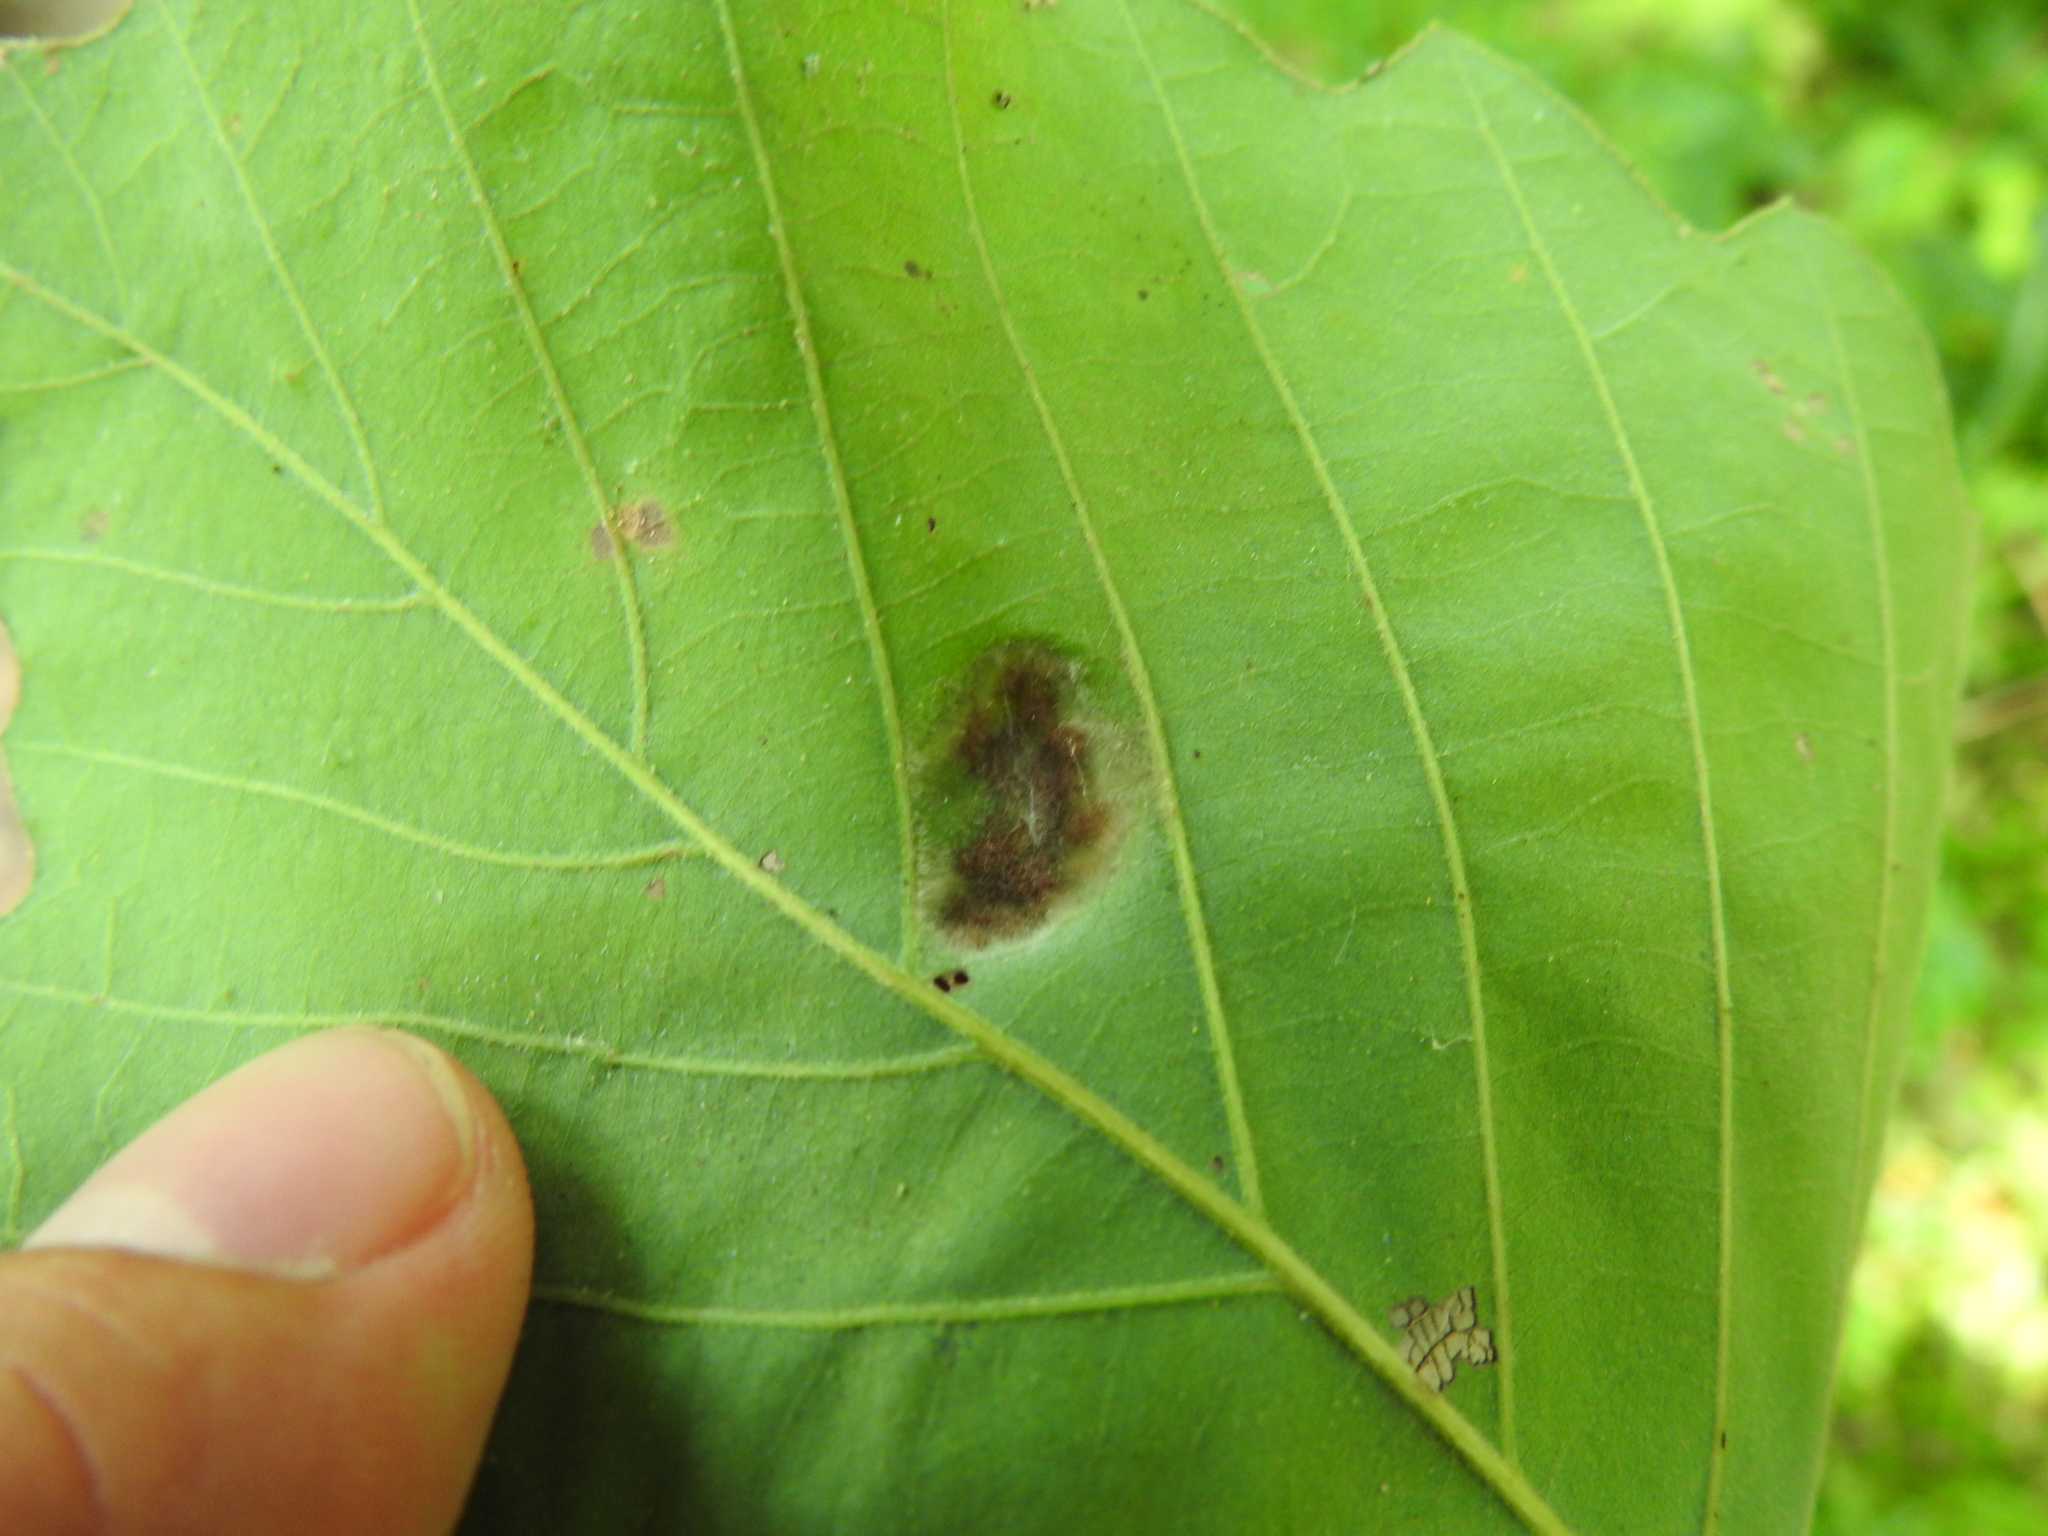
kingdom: Animalia
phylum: Arthropoda
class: Arachnida
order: Trombidiformes
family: Eriophyidae
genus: Aceria
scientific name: Aceria quercina
